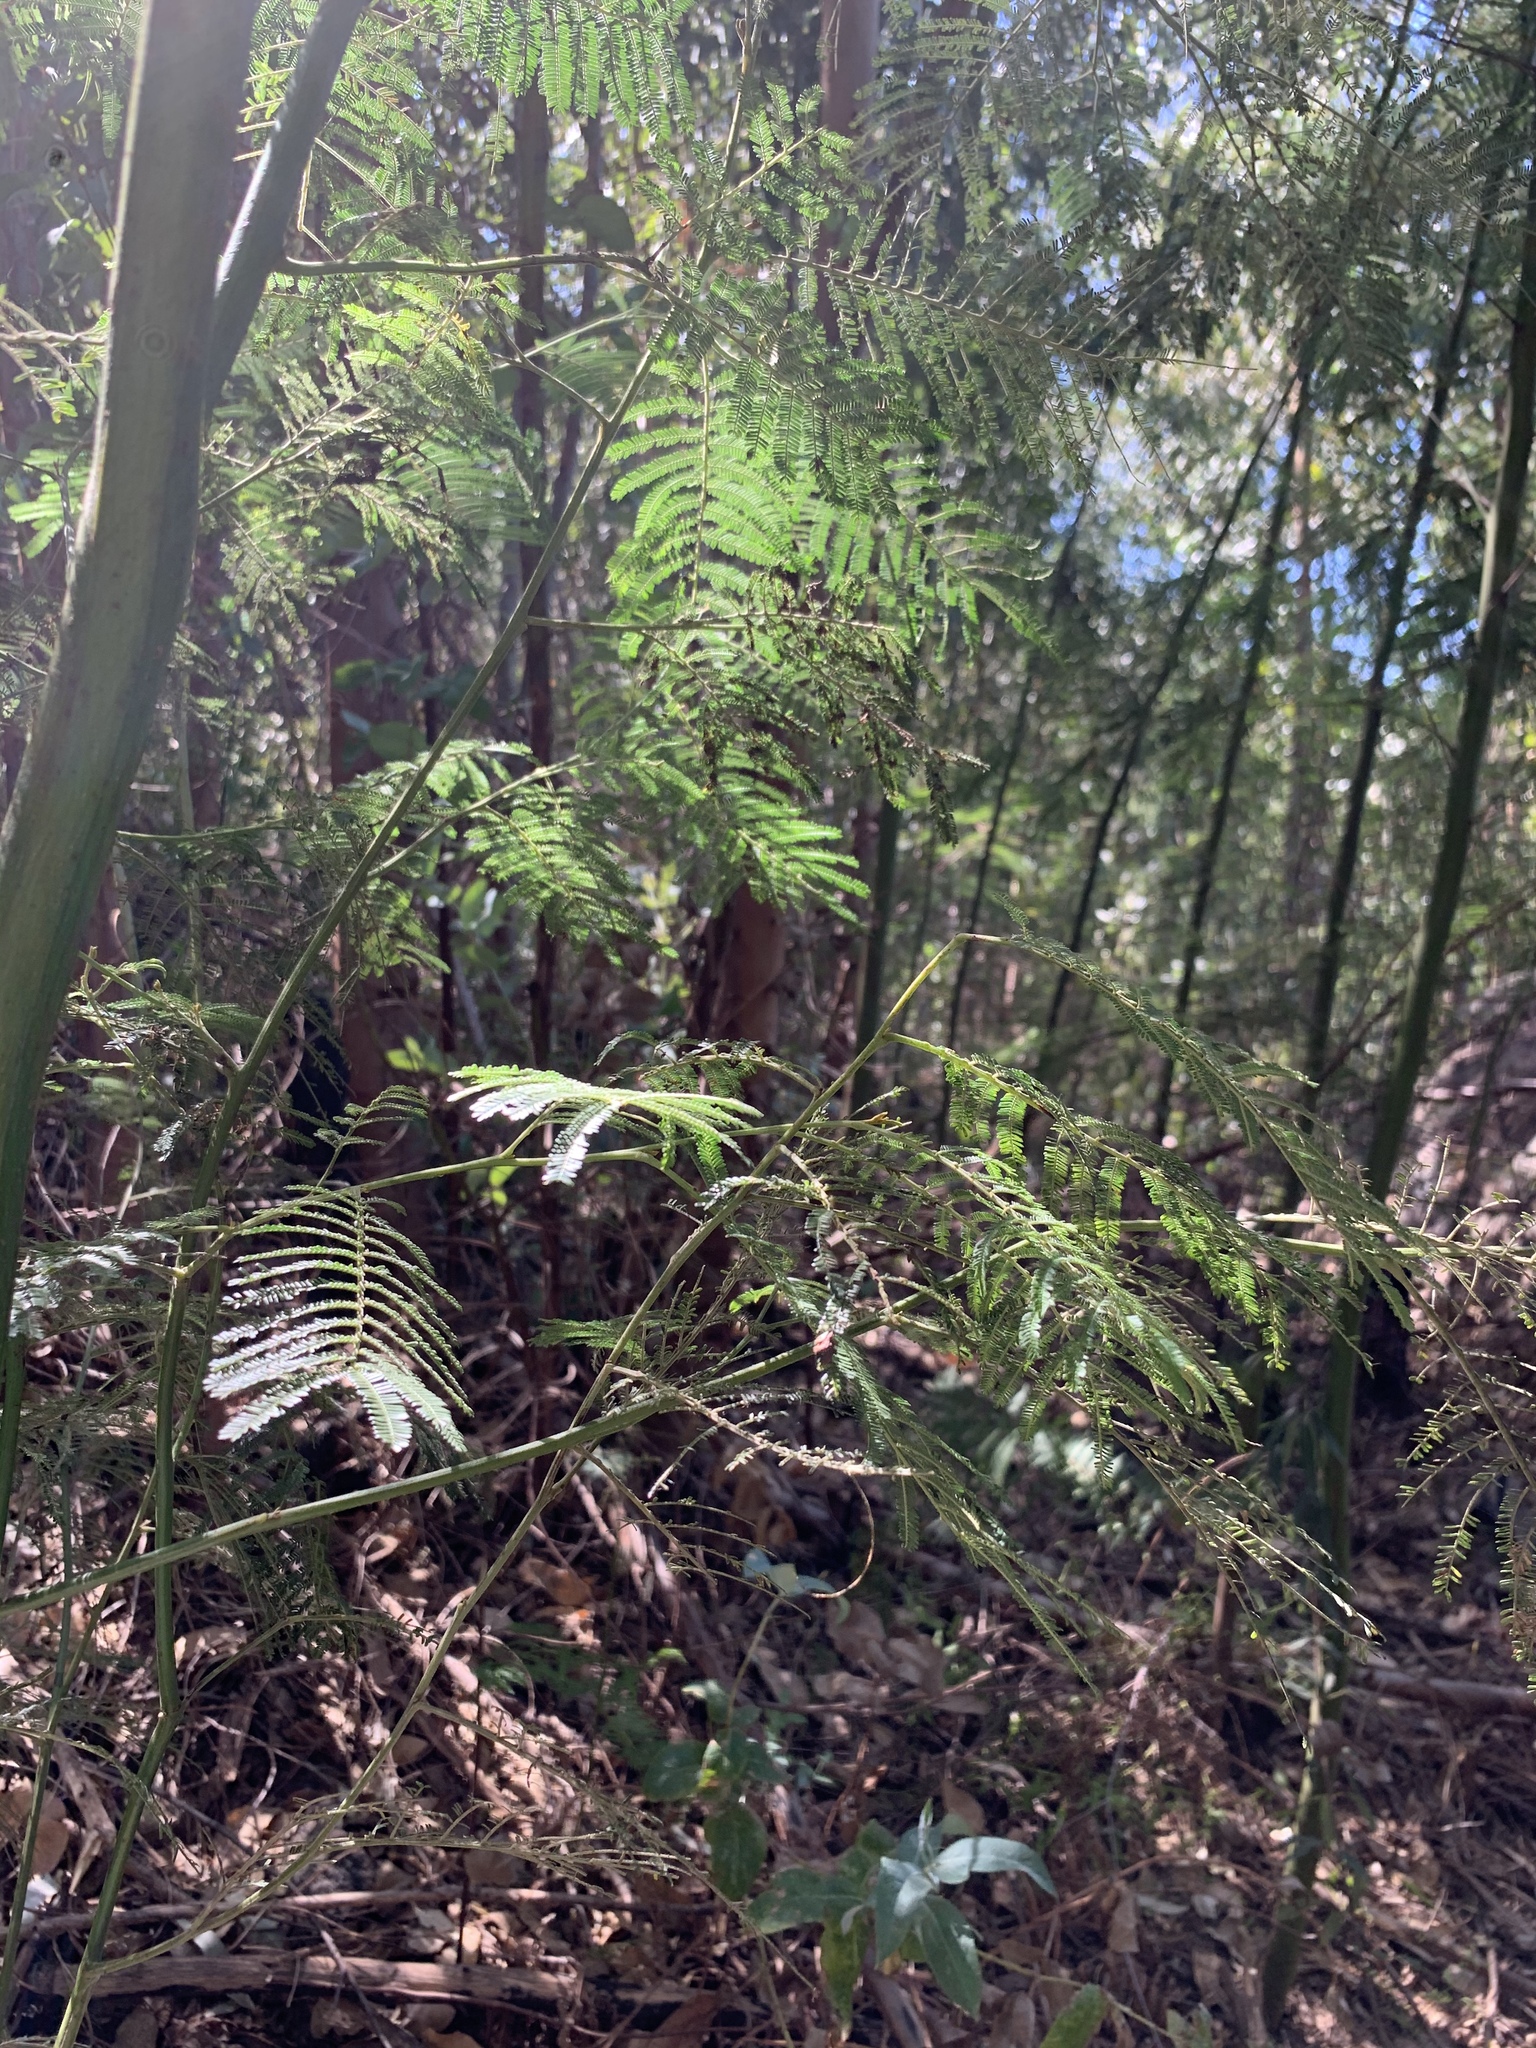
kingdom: Plantae
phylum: Tracheophyta
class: Magnoliopsida
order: Fabales
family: Fabaceae
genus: Acacia
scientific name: Acacia mearnsii
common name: Black wattle
